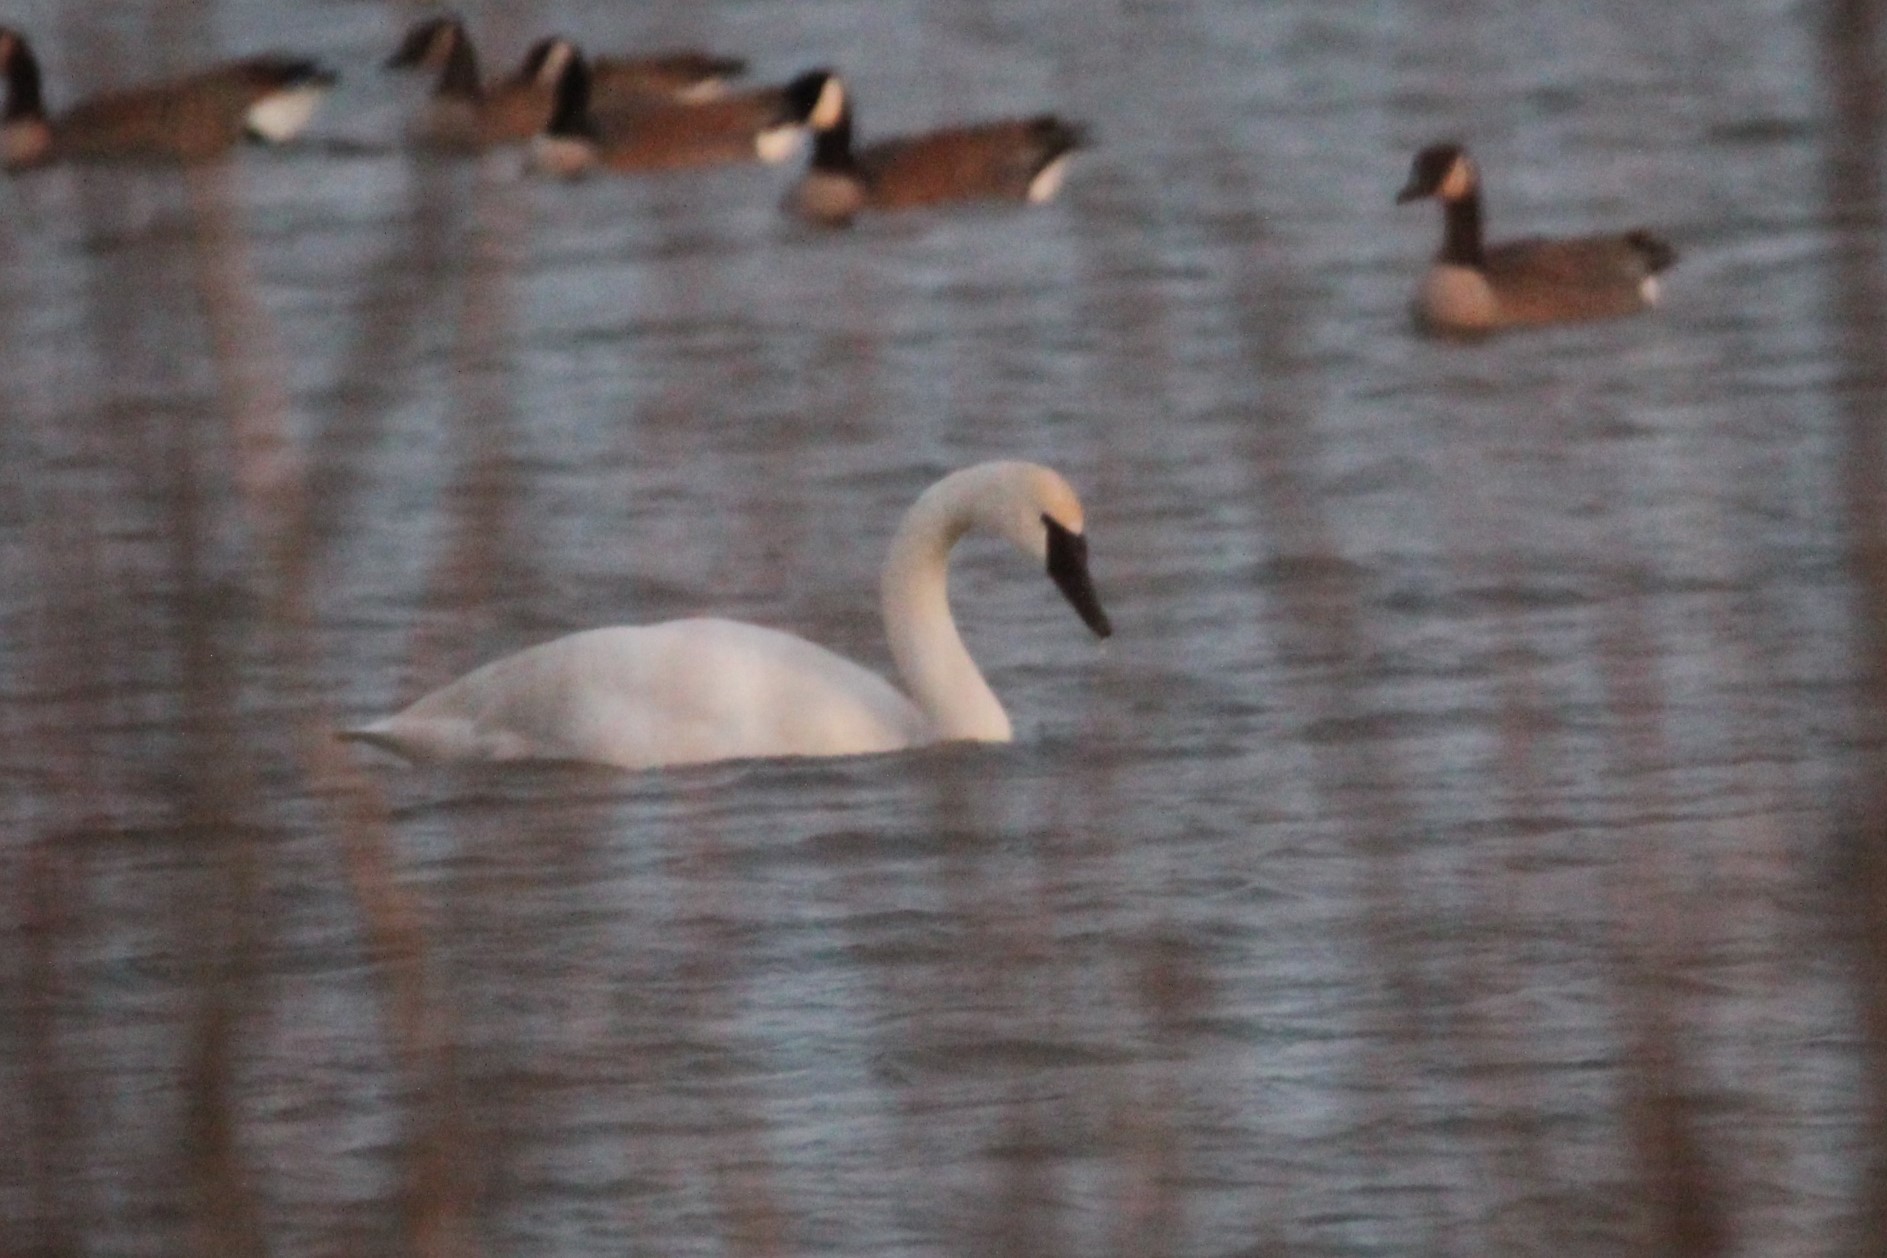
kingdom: Animalia
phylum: Chordata
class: Aves
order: Anseriformes
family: Anatidae
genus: Cygnus
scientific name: Cygnus buccinator
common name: Trumpeter swan
